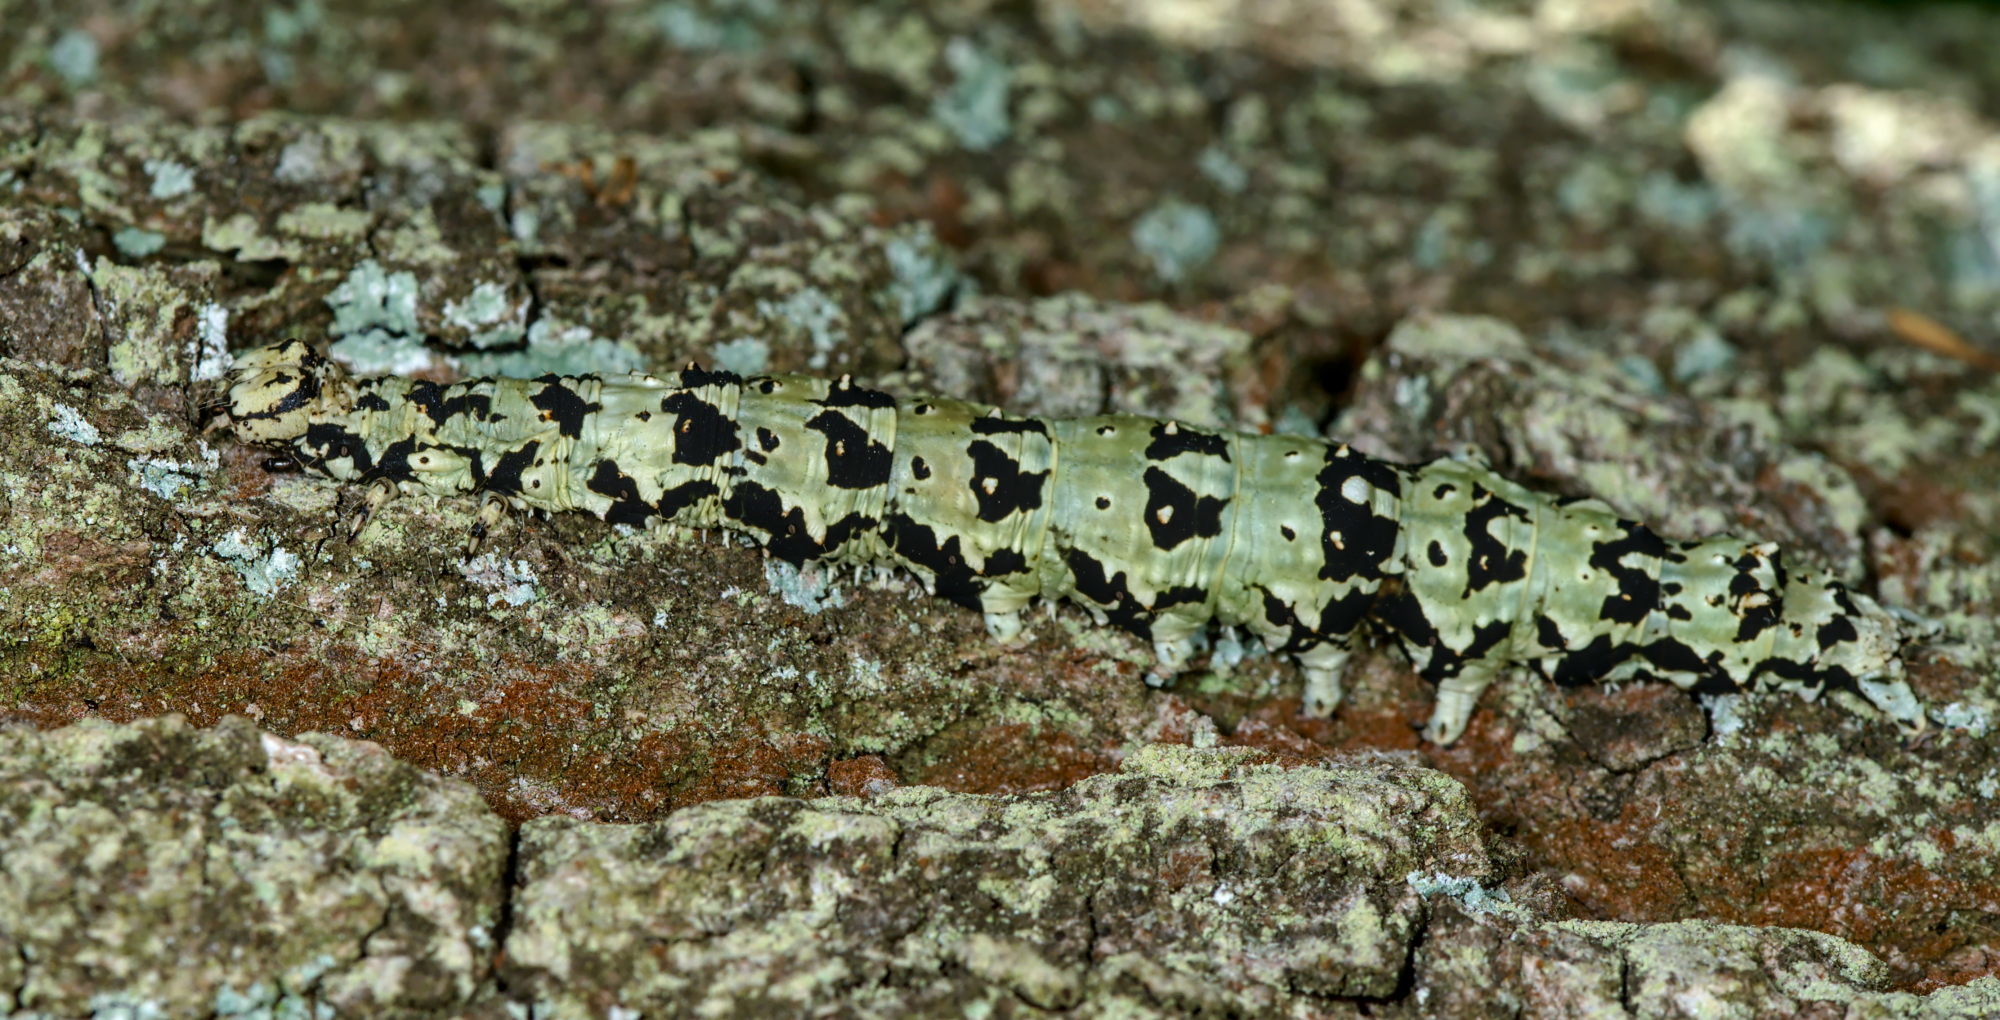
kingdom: Animalia
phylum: Arthropoda
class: Insecta
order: Lepidoptera
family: Erebidae
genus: Catocala
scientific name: Catocala promissa
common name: Light crimson underwing
